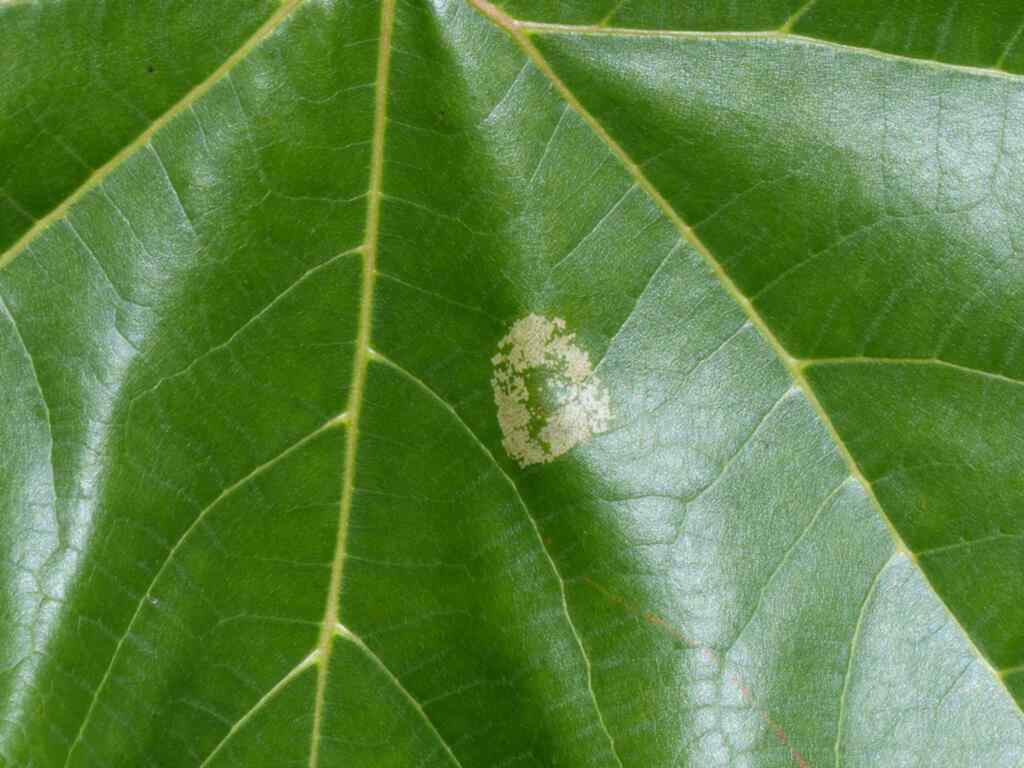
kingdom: Animalia
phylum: Arthropoda
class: Insecta
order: Lepidoptera
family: Gracillariidae
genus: Phyllonorycter
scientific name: Phyllonorycter platani
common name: London midget
